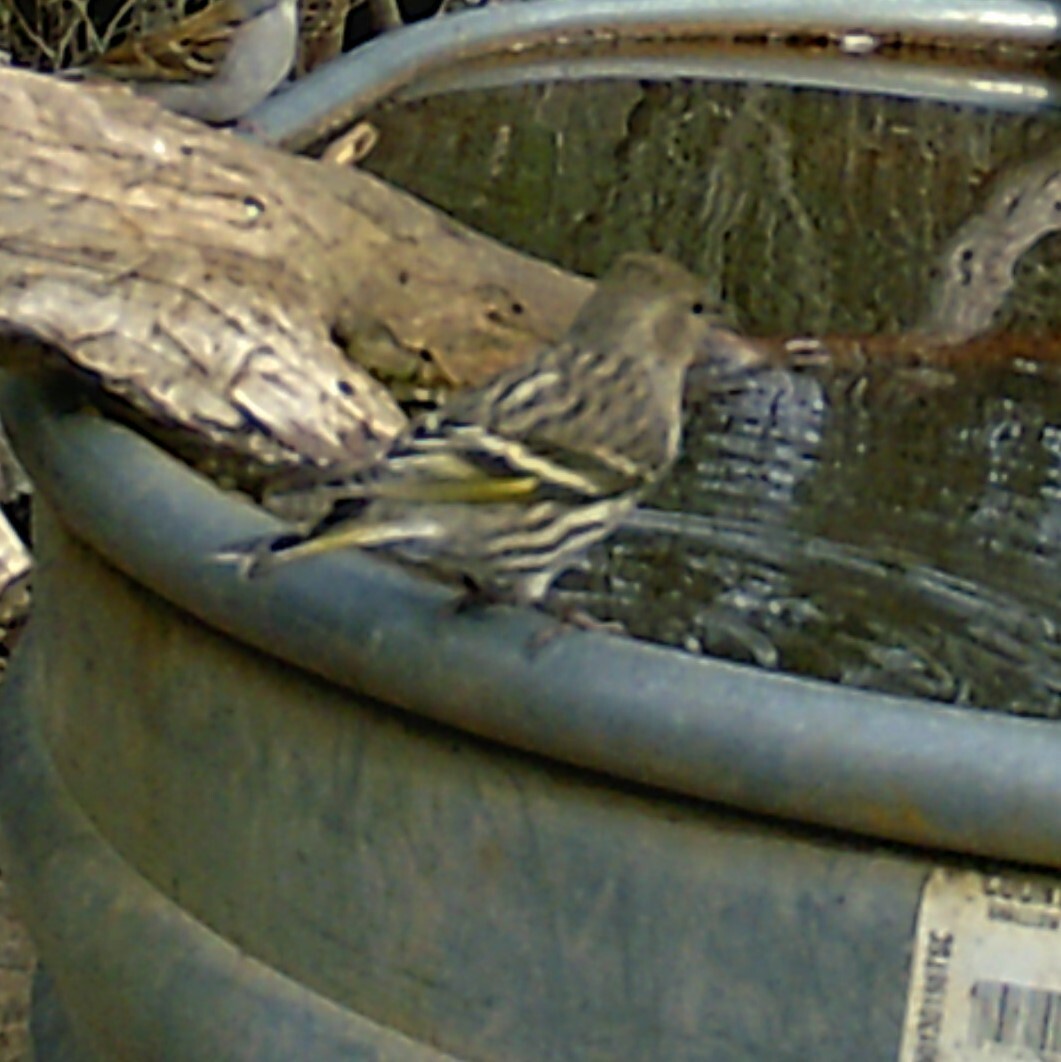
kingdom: Animalia
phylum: Chordata
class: Aves
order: Passeriformes
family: Fringillidae
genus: Spinus
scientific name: Spinus pinus
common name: Pine siskin
